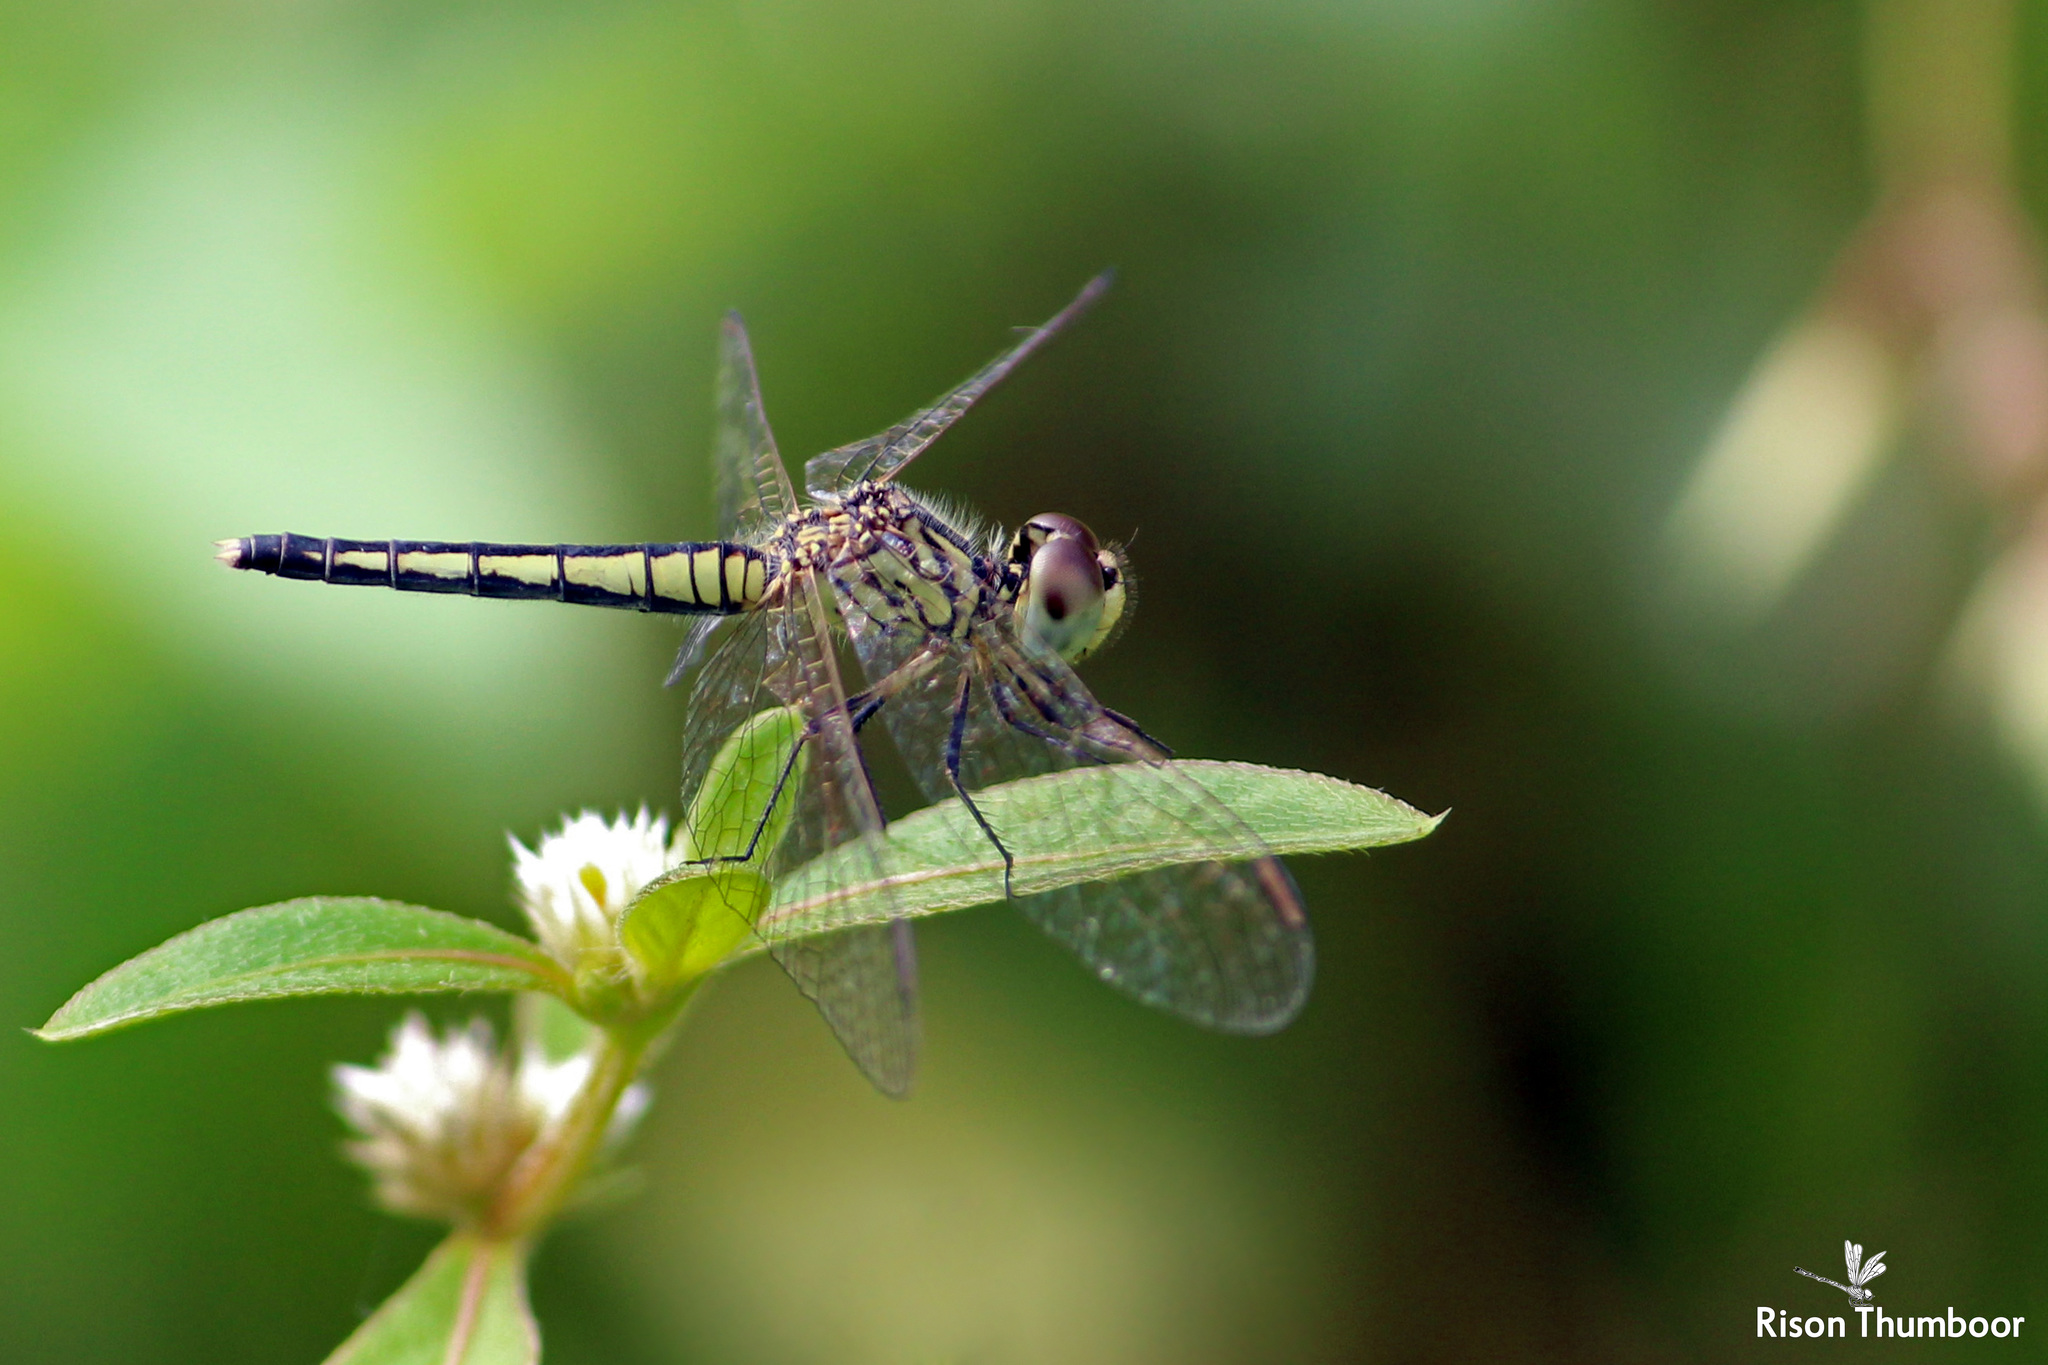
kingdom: Animalia
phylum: Arthropoda
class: Insecta
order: Odonata
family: Libellulidae
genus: Diplacodes
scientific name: Diplacodes nebulosa
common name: Black-tipped percher
